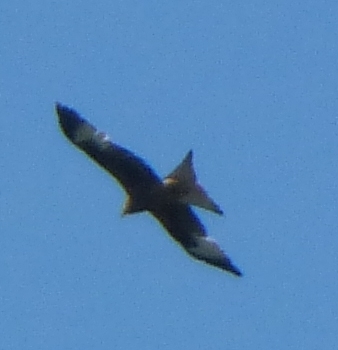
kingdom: Animalia
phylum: Chordata
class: Aves
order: Accipitriformes
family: Accipitridae
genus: Milvus
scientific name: Milvus milvus
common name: Red kite
